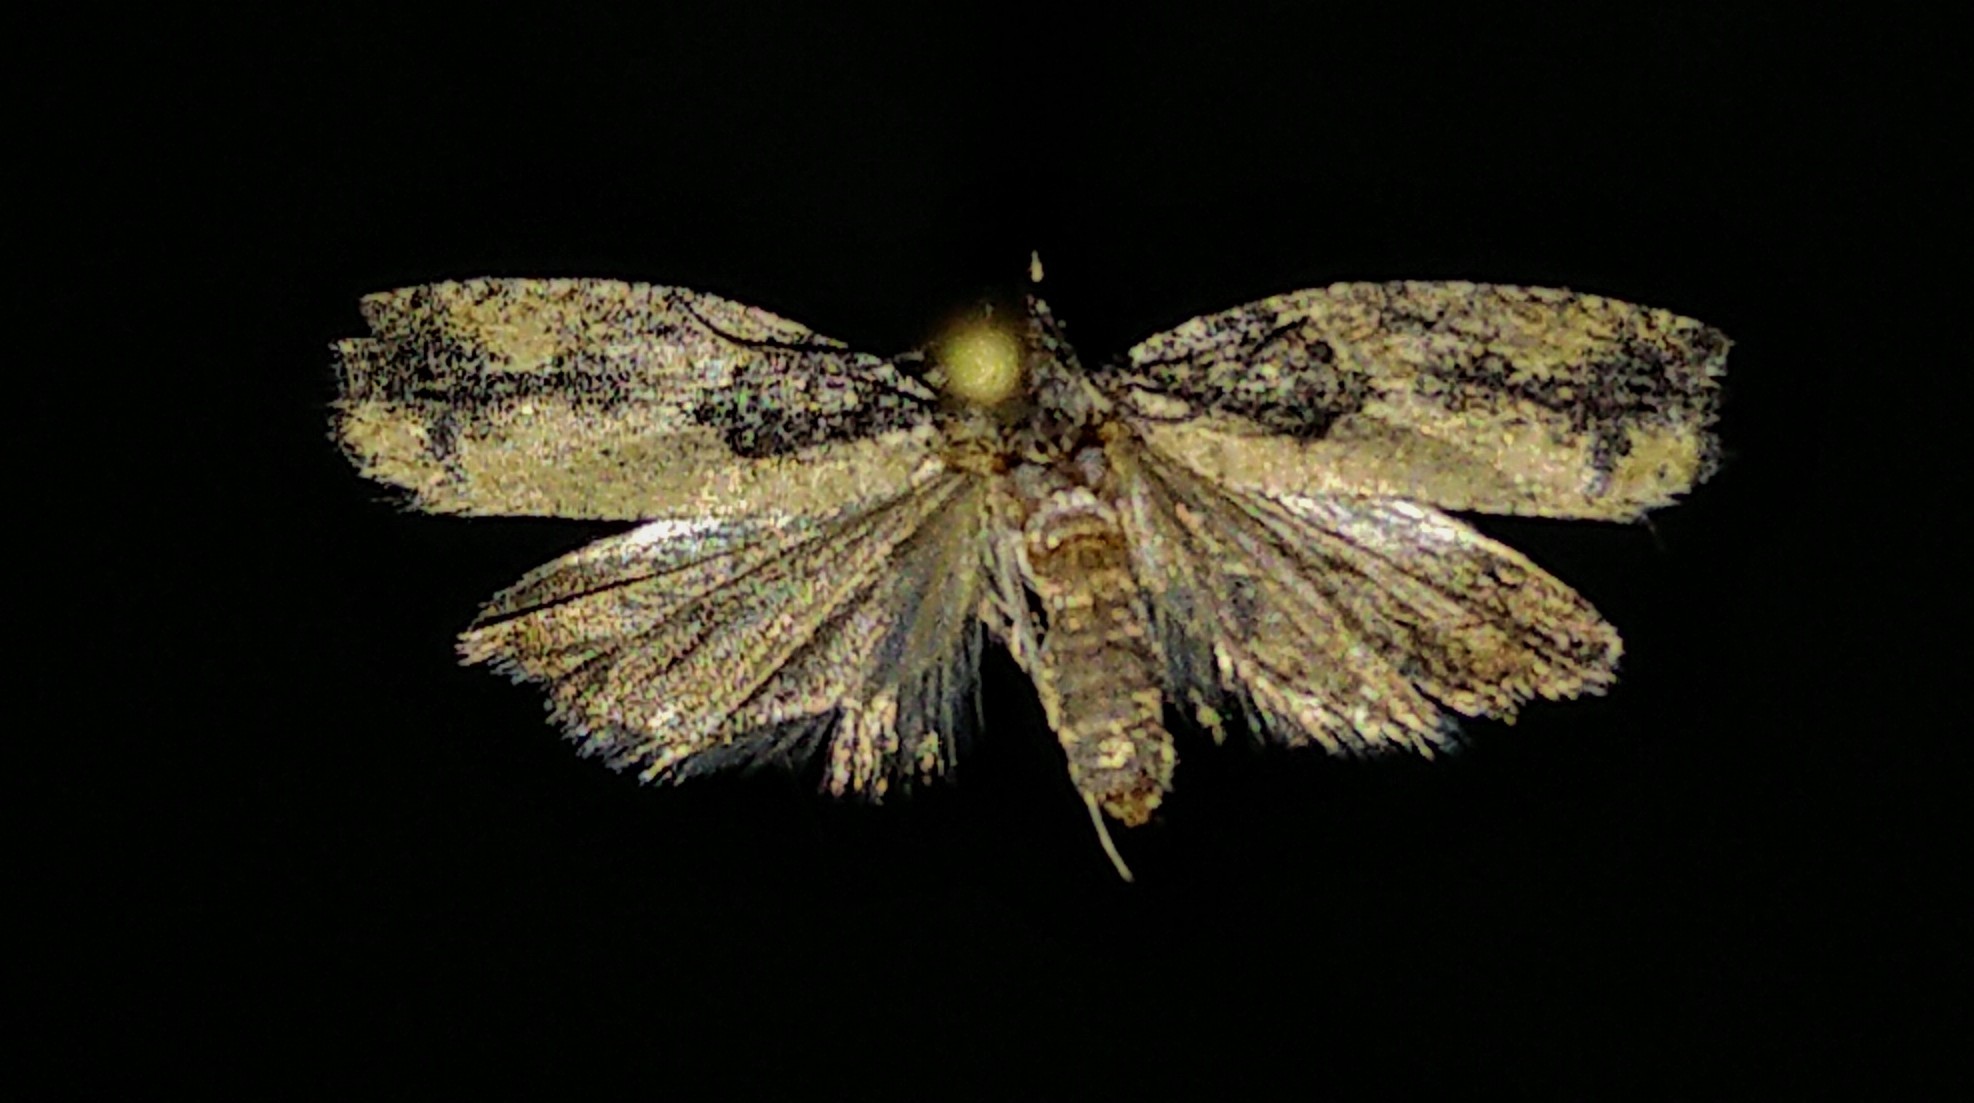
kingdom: Animalia
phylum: Arthropoda
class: Insecta
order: Lepidoptera
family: Tortricidae
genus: Epinotia
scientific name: Epinotia cinereana
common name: Grey aspen bell
